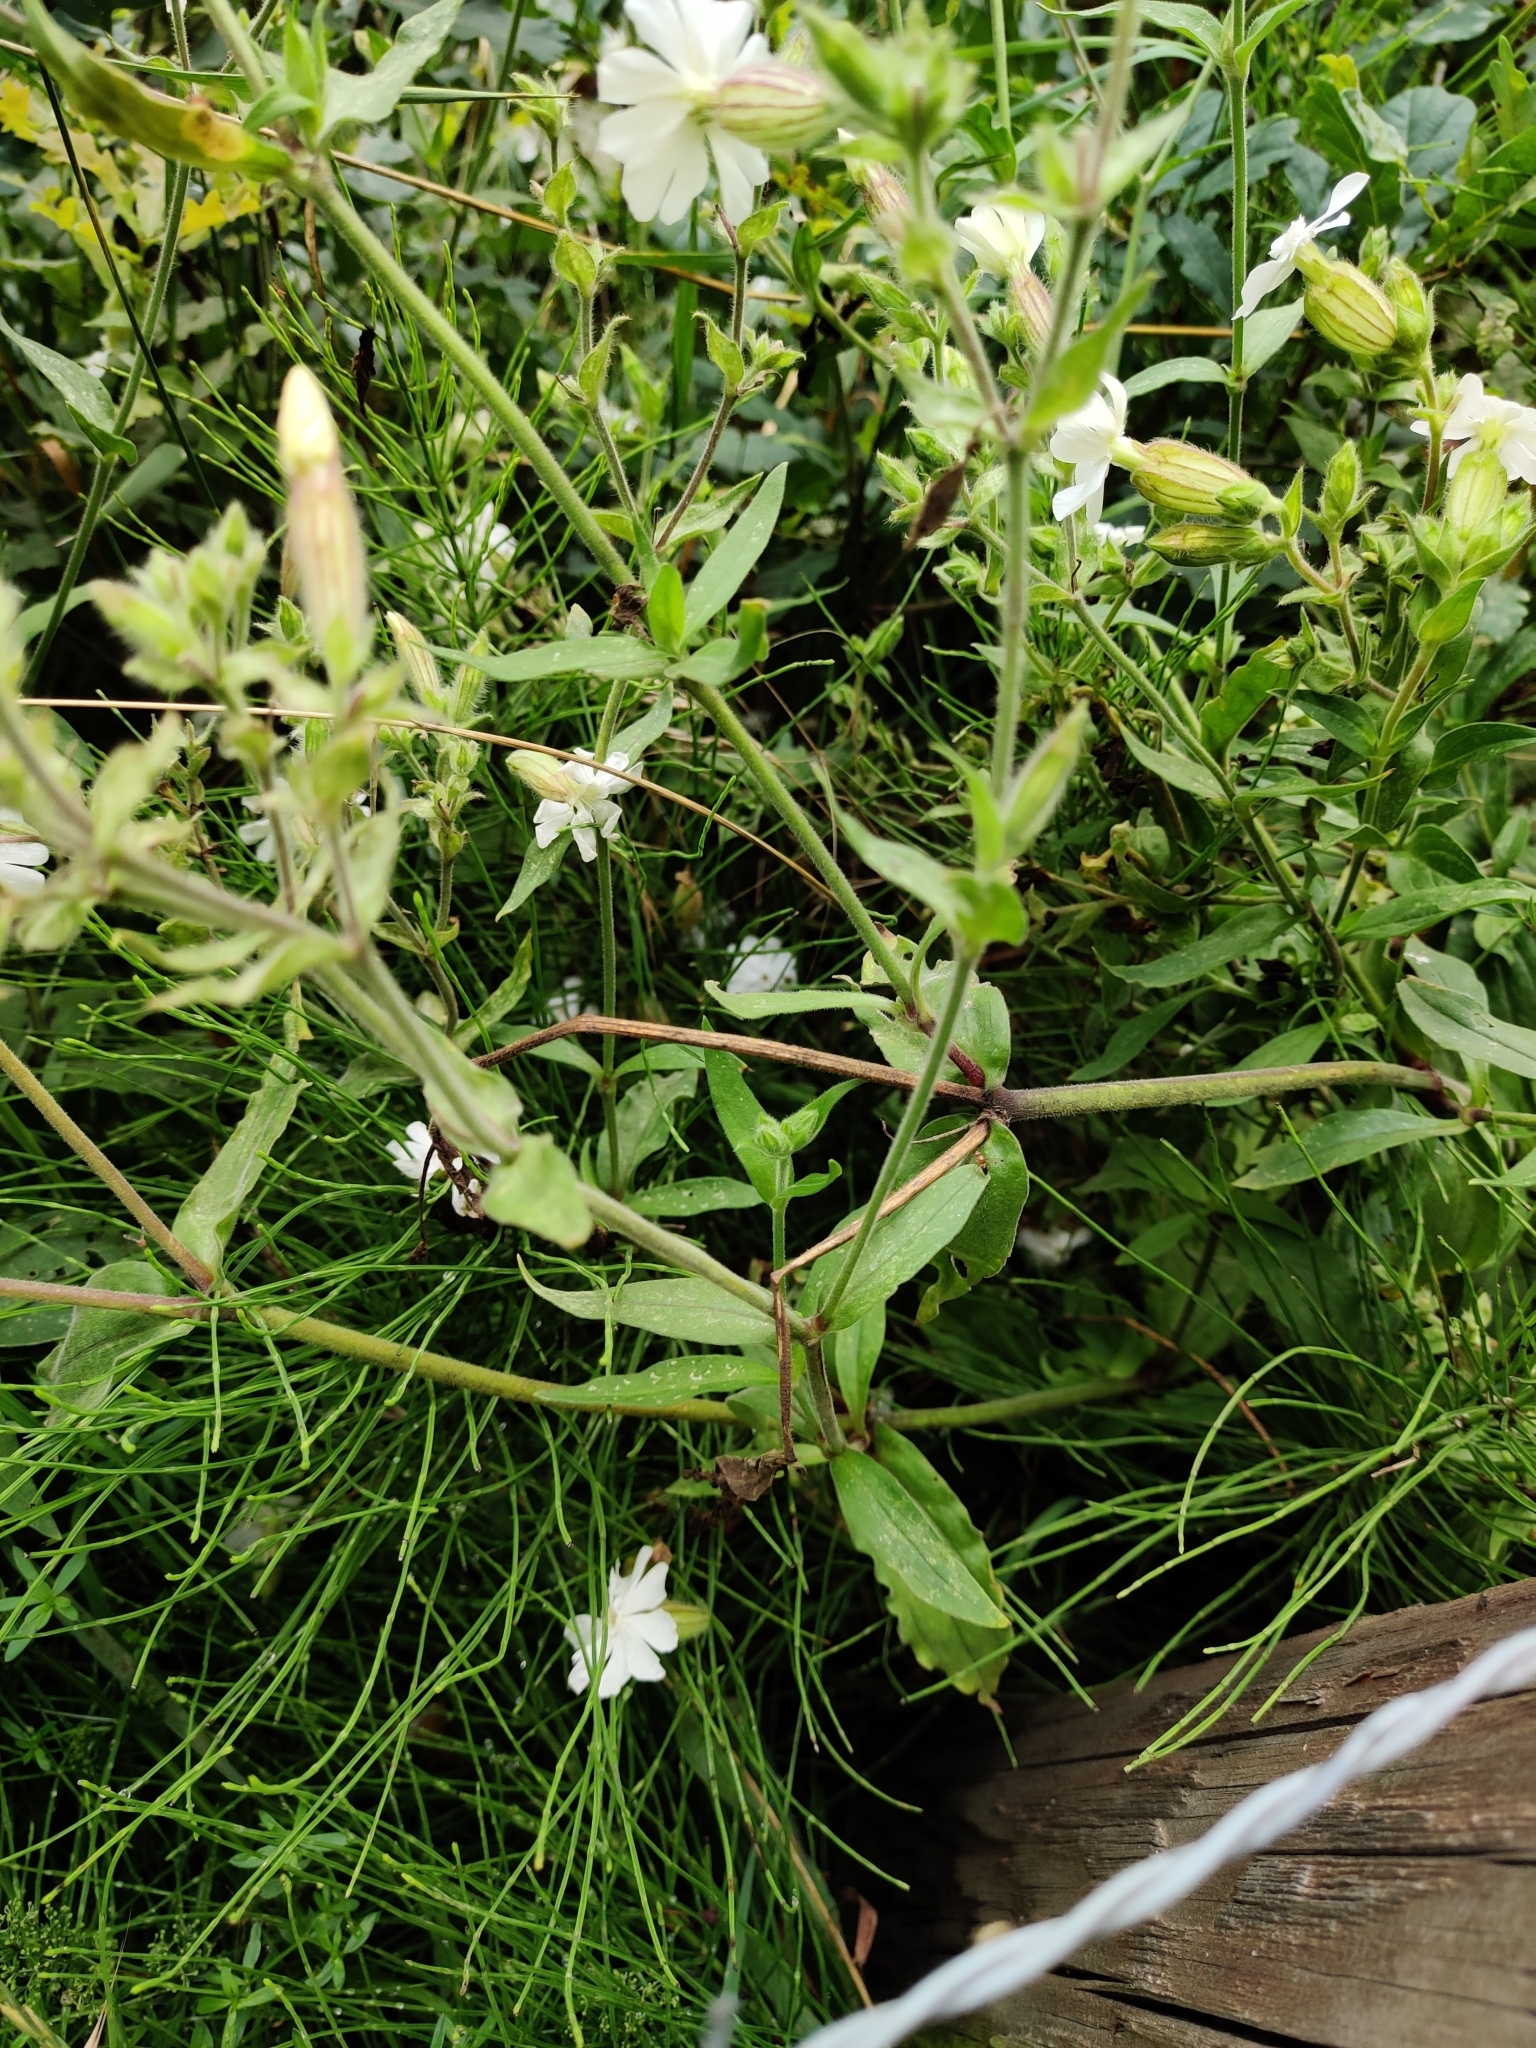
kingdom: Plantae
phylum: Tracheophyta
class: Magnoliopsida
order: Caryophyllales
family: Caryophyllaceae
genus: Silene
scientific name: Silene latifolia
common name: White campion
